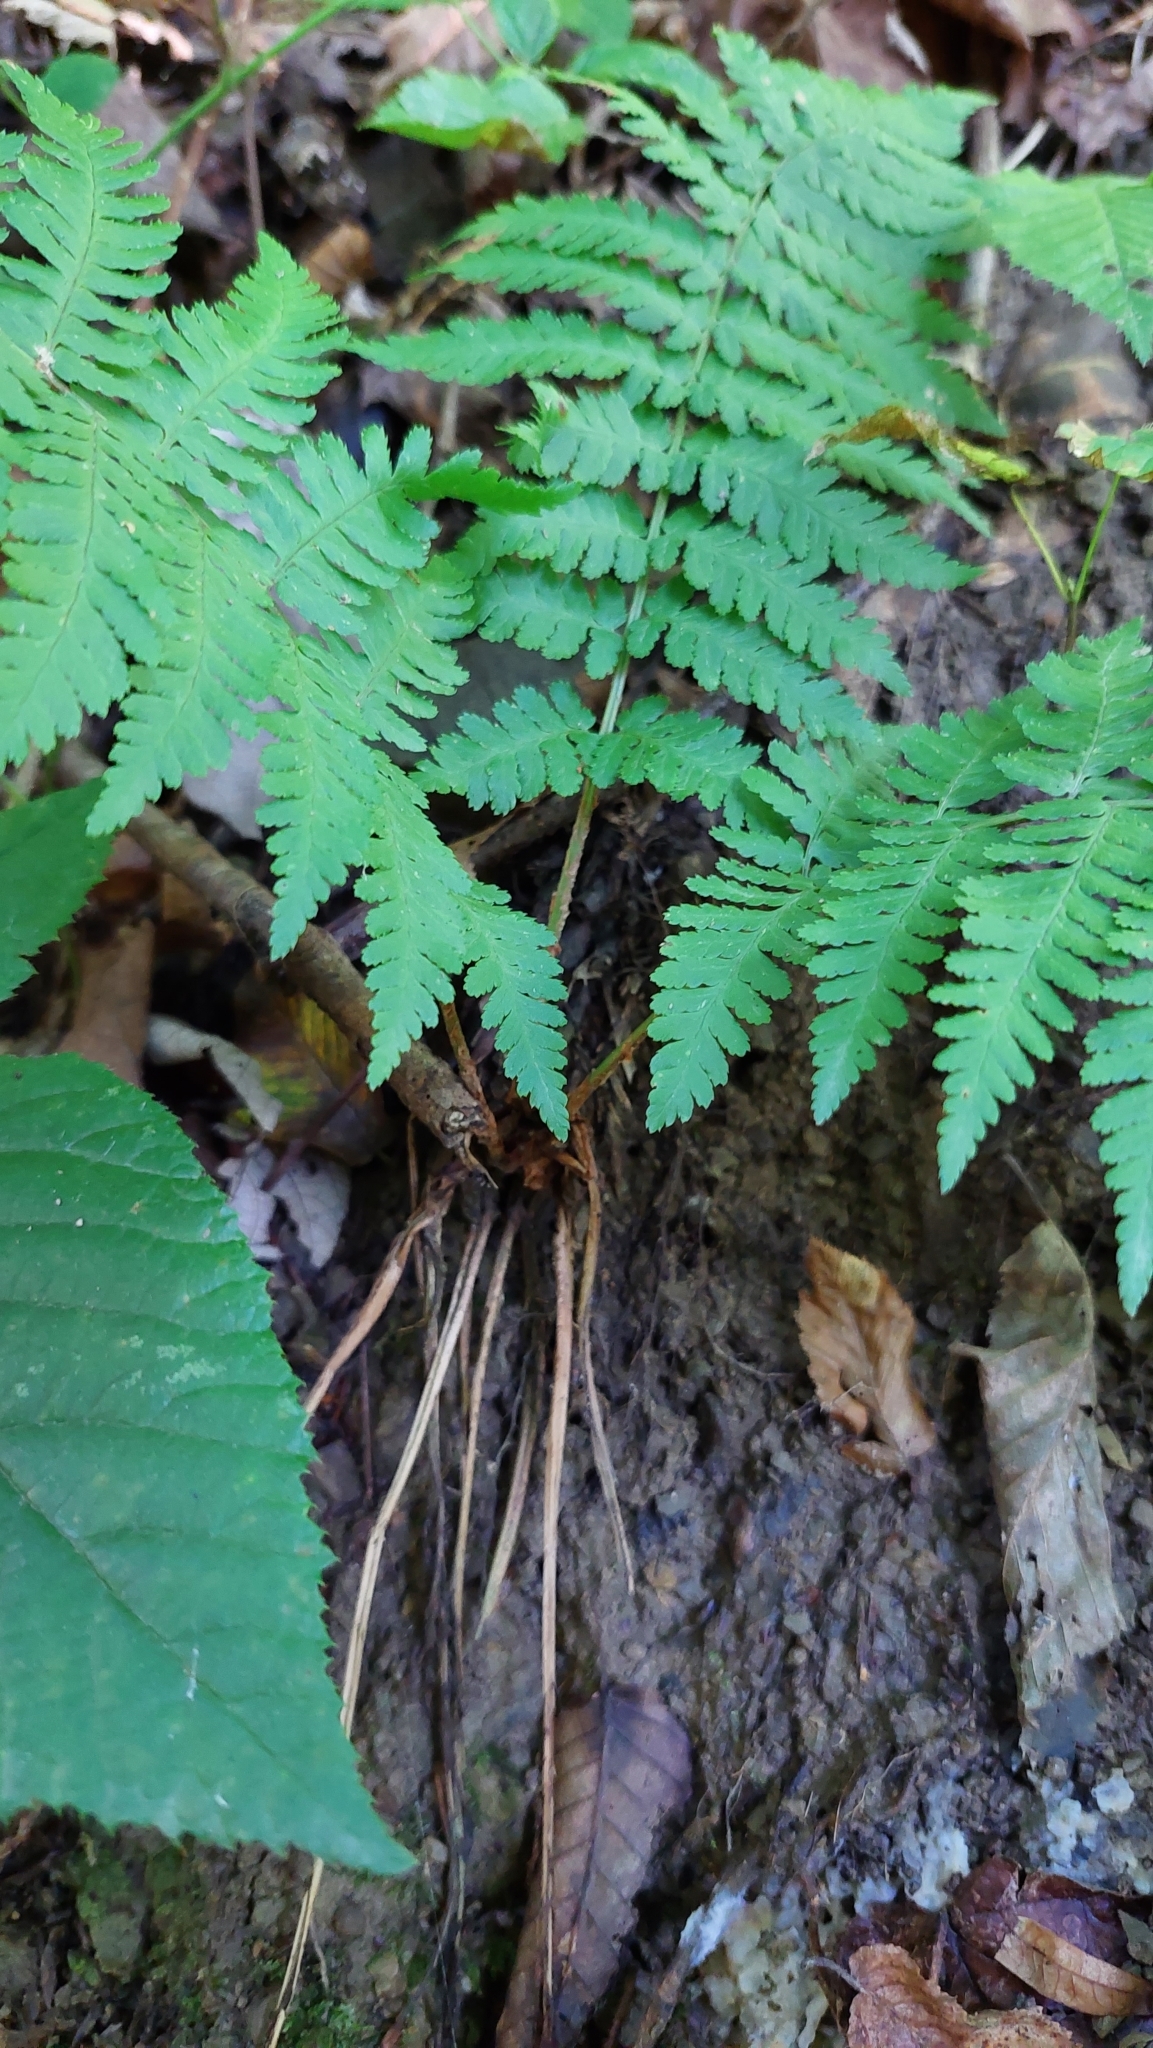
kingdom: Plantae
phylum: Tracheophyta
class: Polypodiopsida
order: Polypodiales
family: Dryopteridaceae
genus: Dryopteris
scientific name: Dryopteris filix-mas
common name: Male fern
